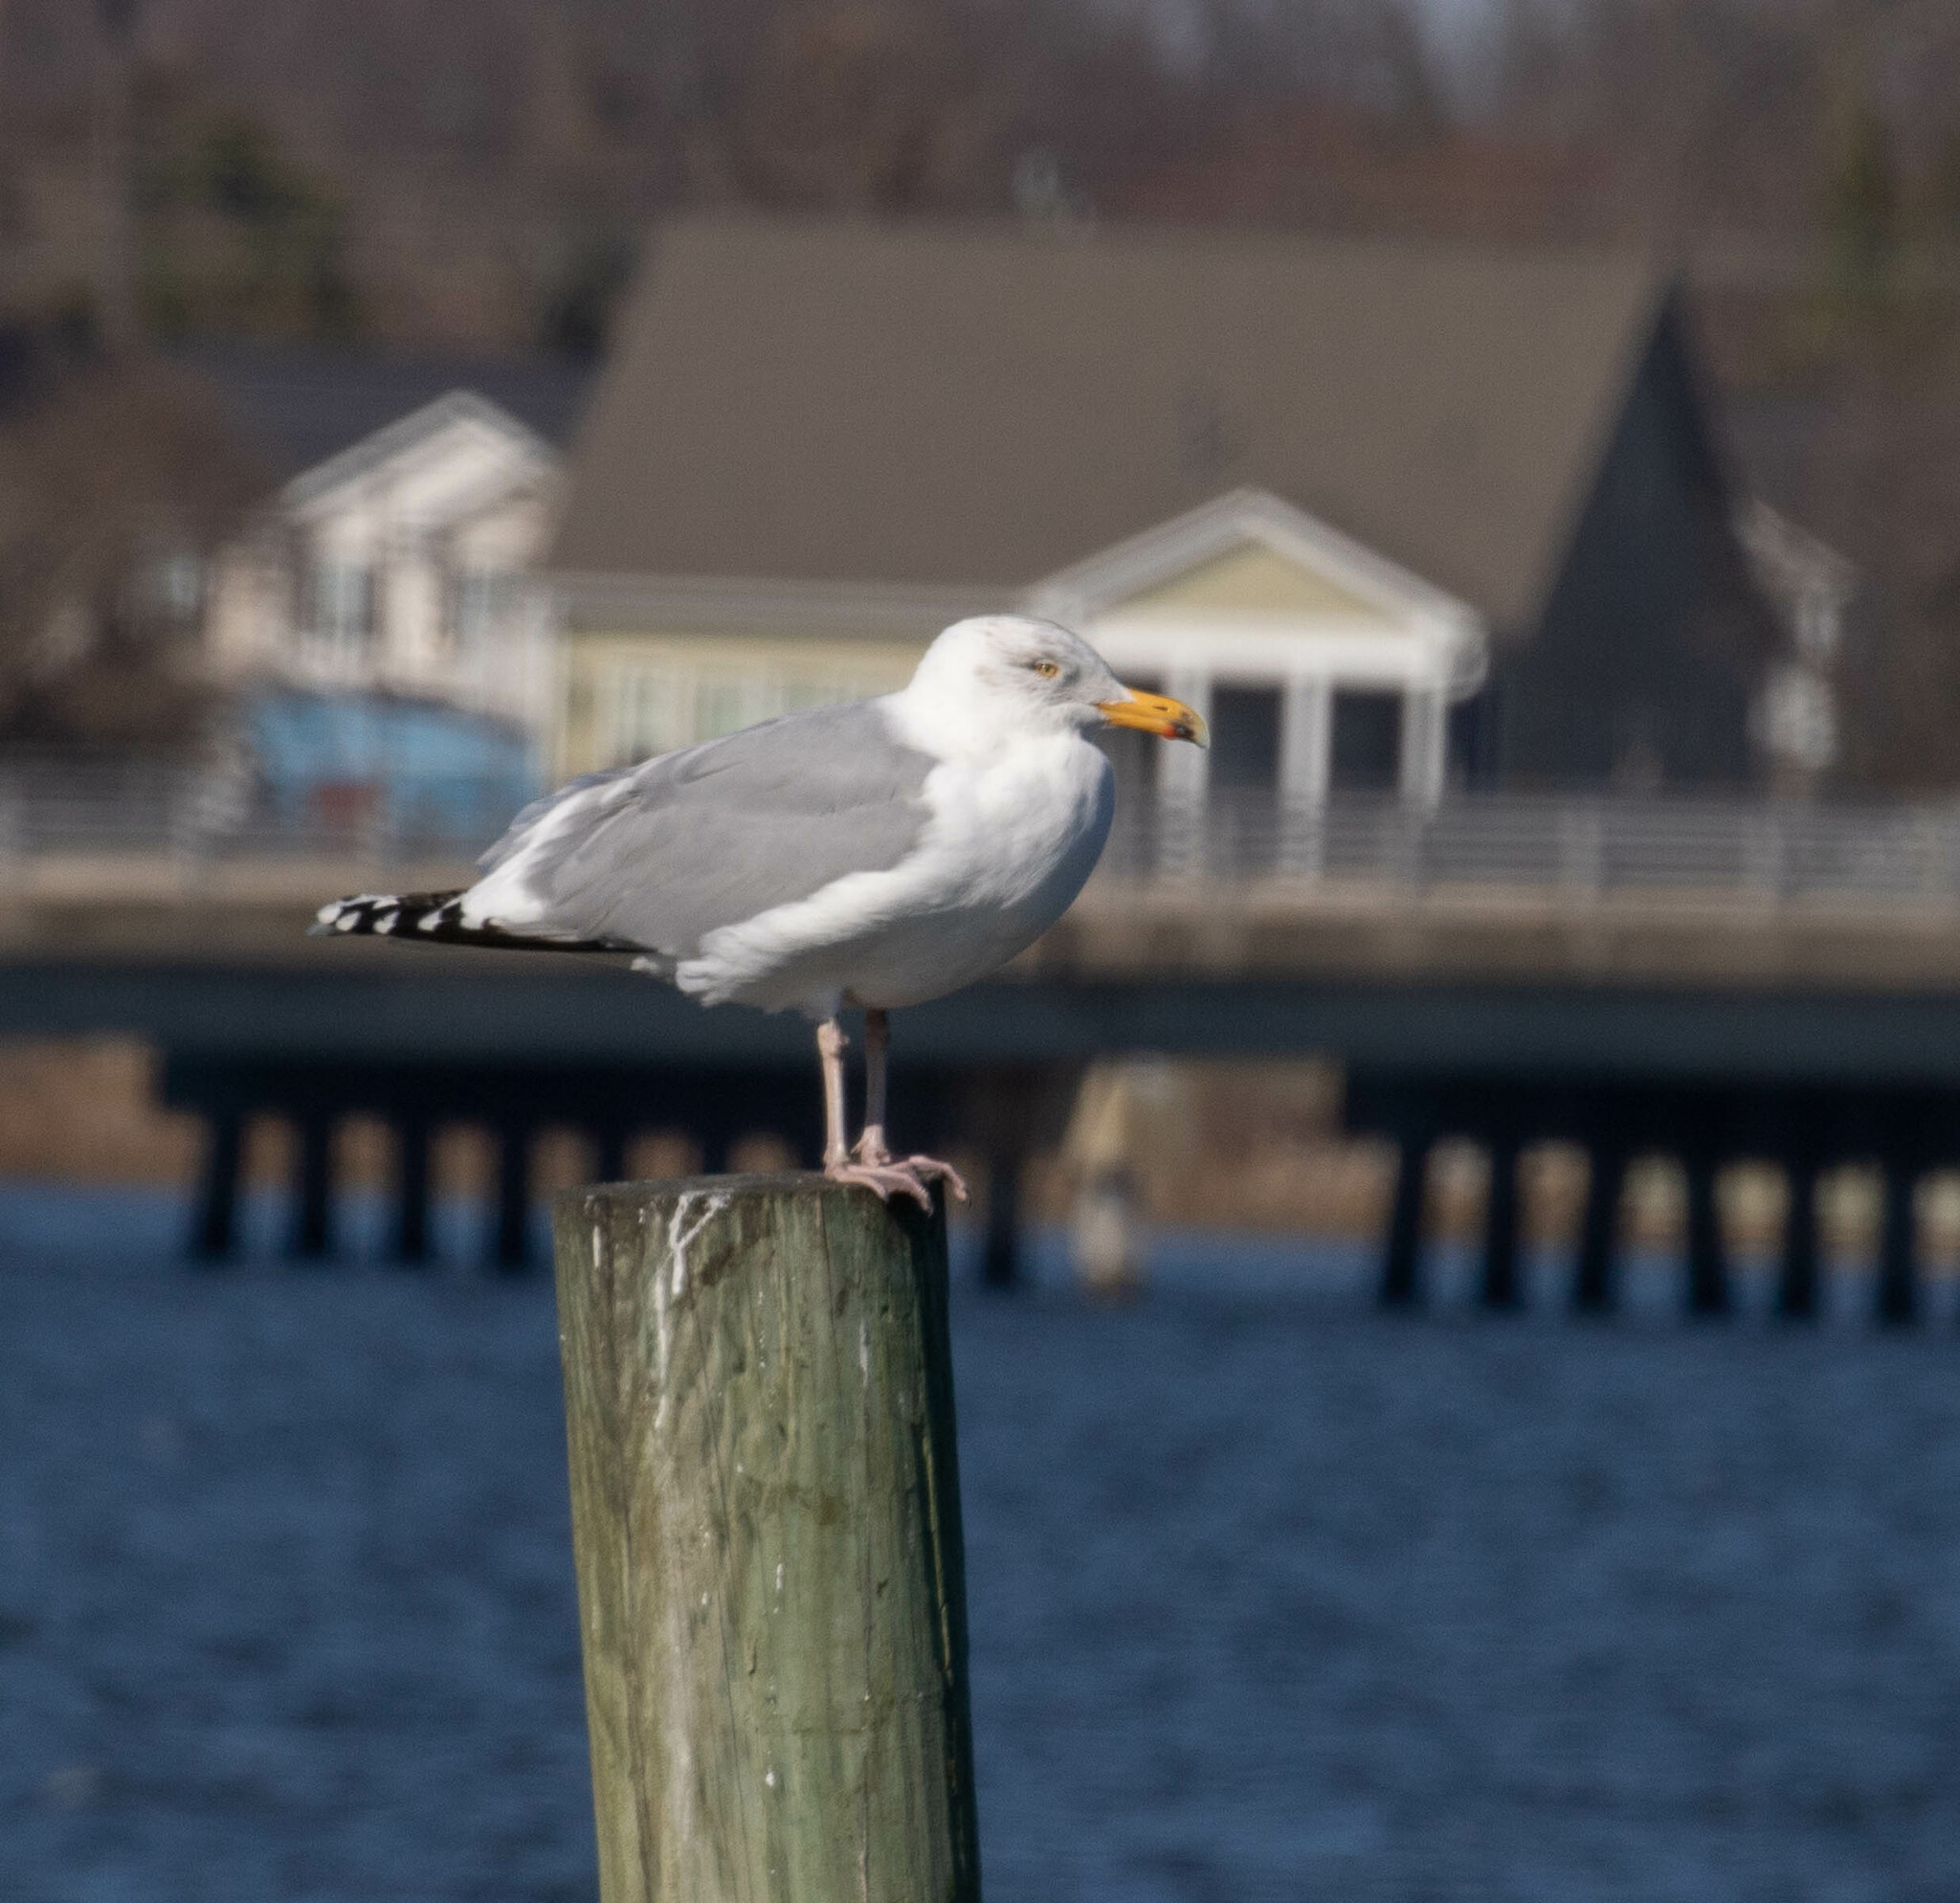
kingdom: Animalia
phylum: Chordata
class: Aves
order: Charadriiformes
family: Laridae
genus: Larus
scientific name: Larus argentatus
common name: Herring gull
